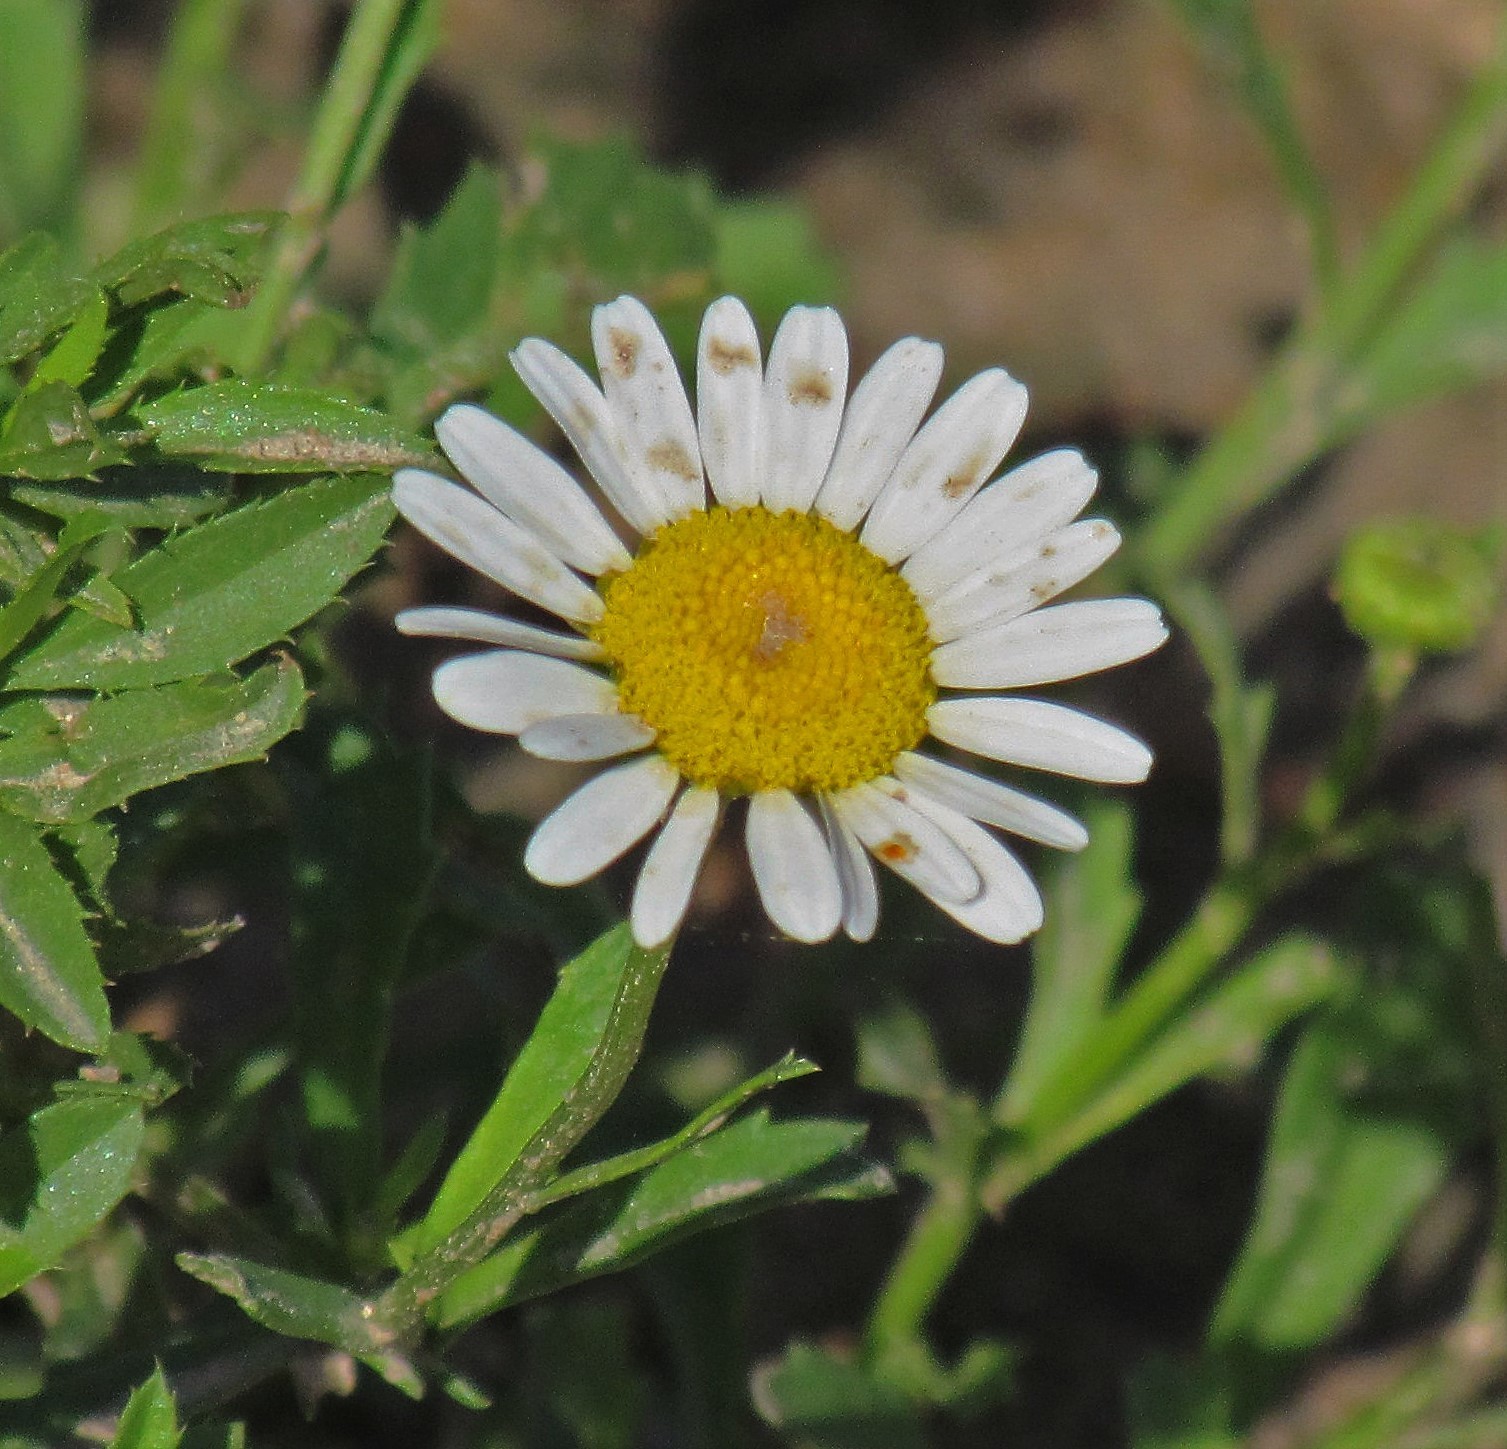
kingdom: Plantae
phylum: Tracheophyta
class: Magnoliopsida
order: Asterales
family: Asteraceae
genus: Leucanthemum
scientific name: Leucanthemum vulgare
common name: Oxeye daisy
